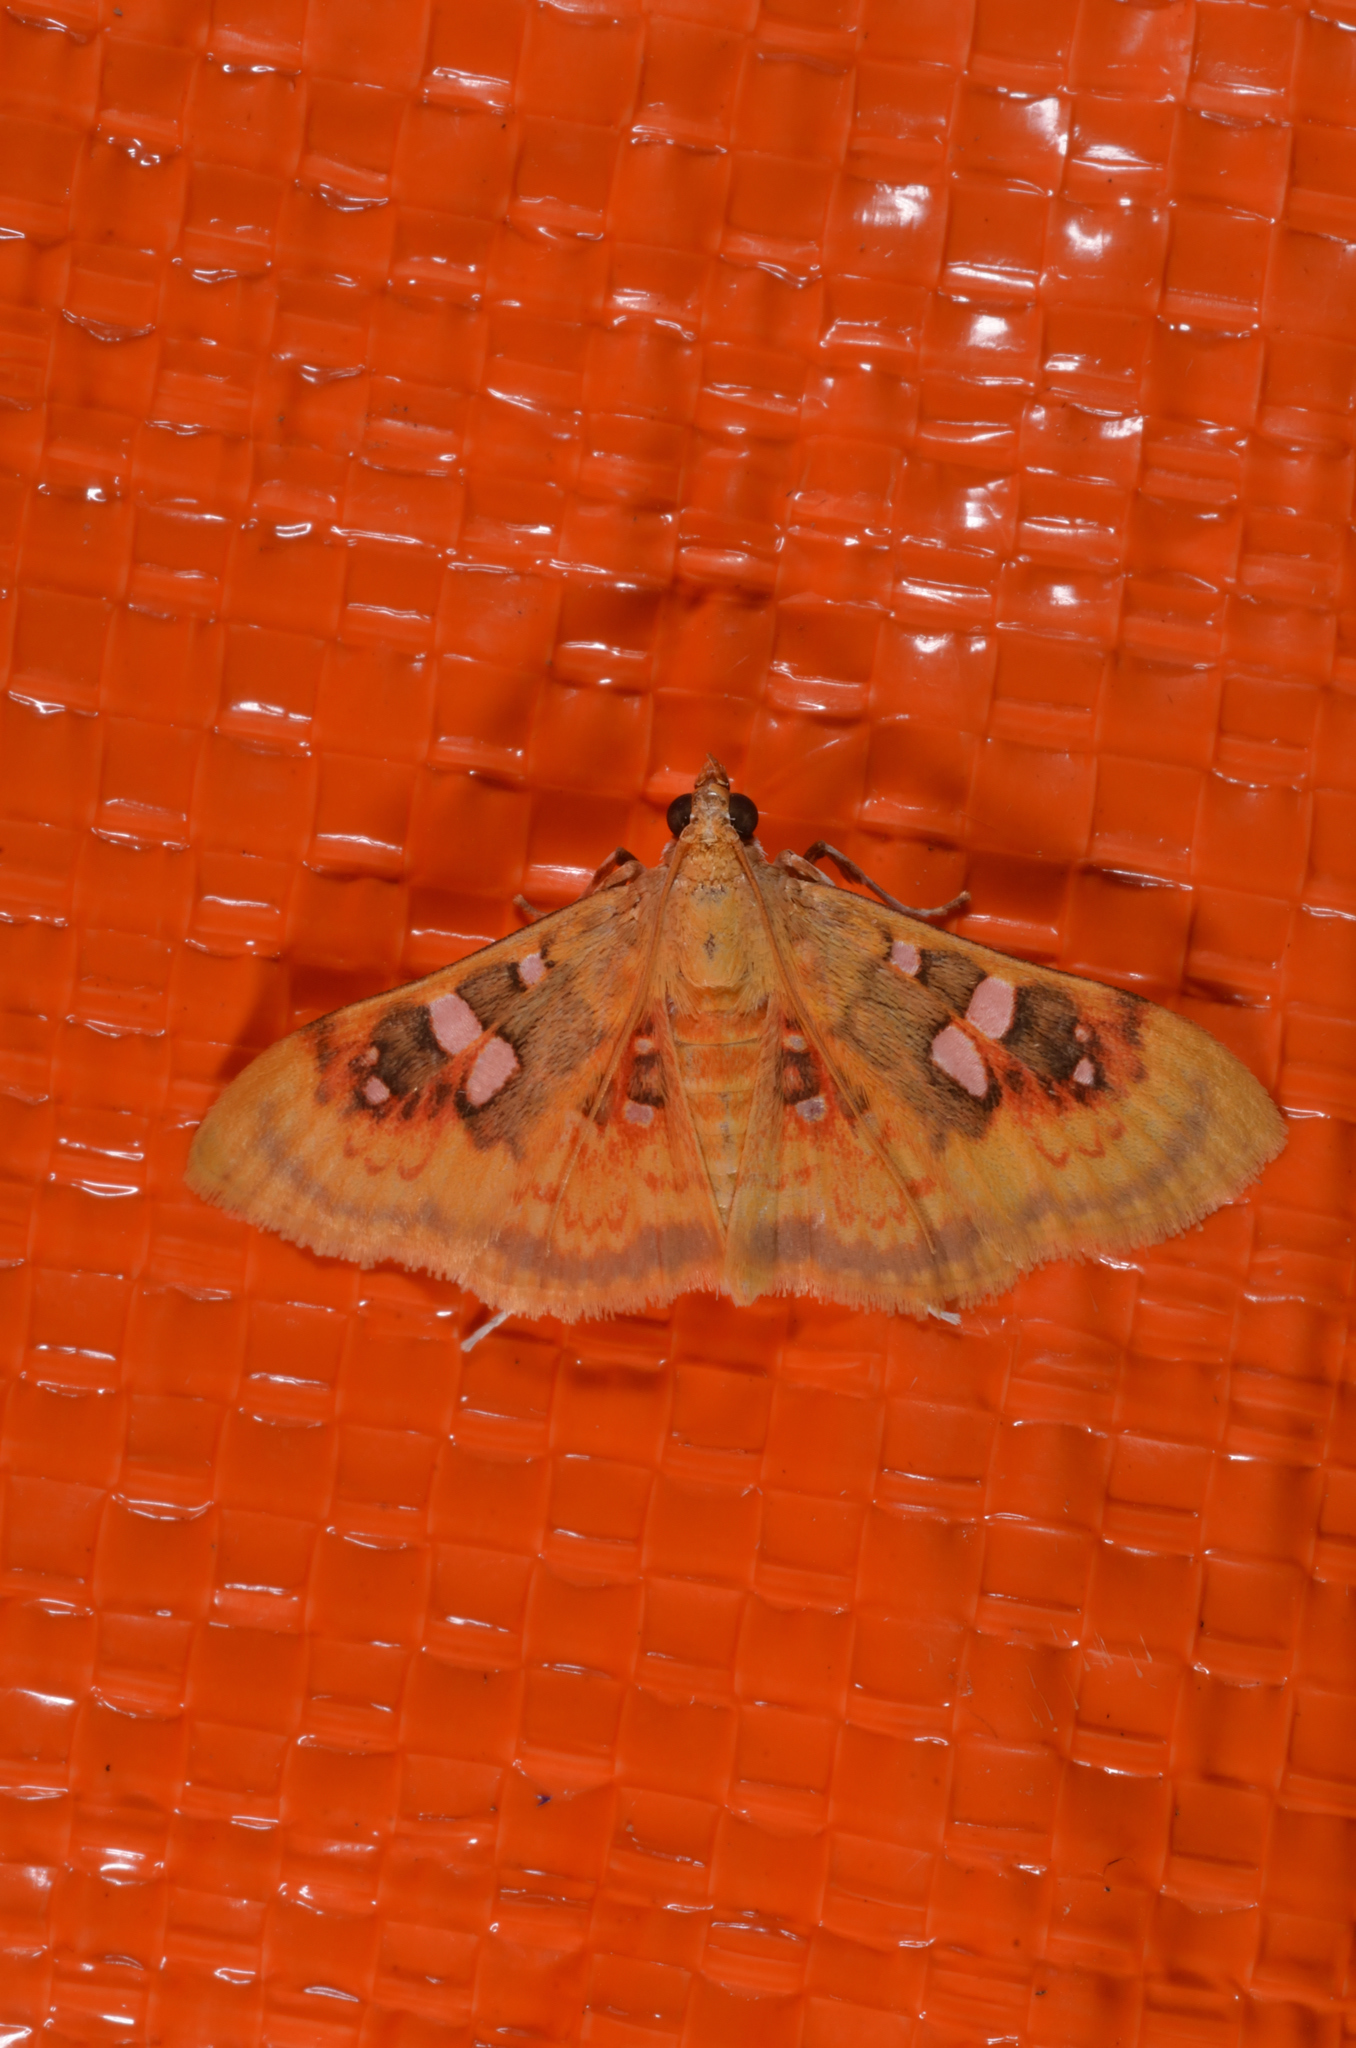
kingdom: Animalia
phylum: Arthropoda
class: Insecta
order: Lepidoptera
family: Crambidae
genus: Sameodes
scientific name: Sameodes
